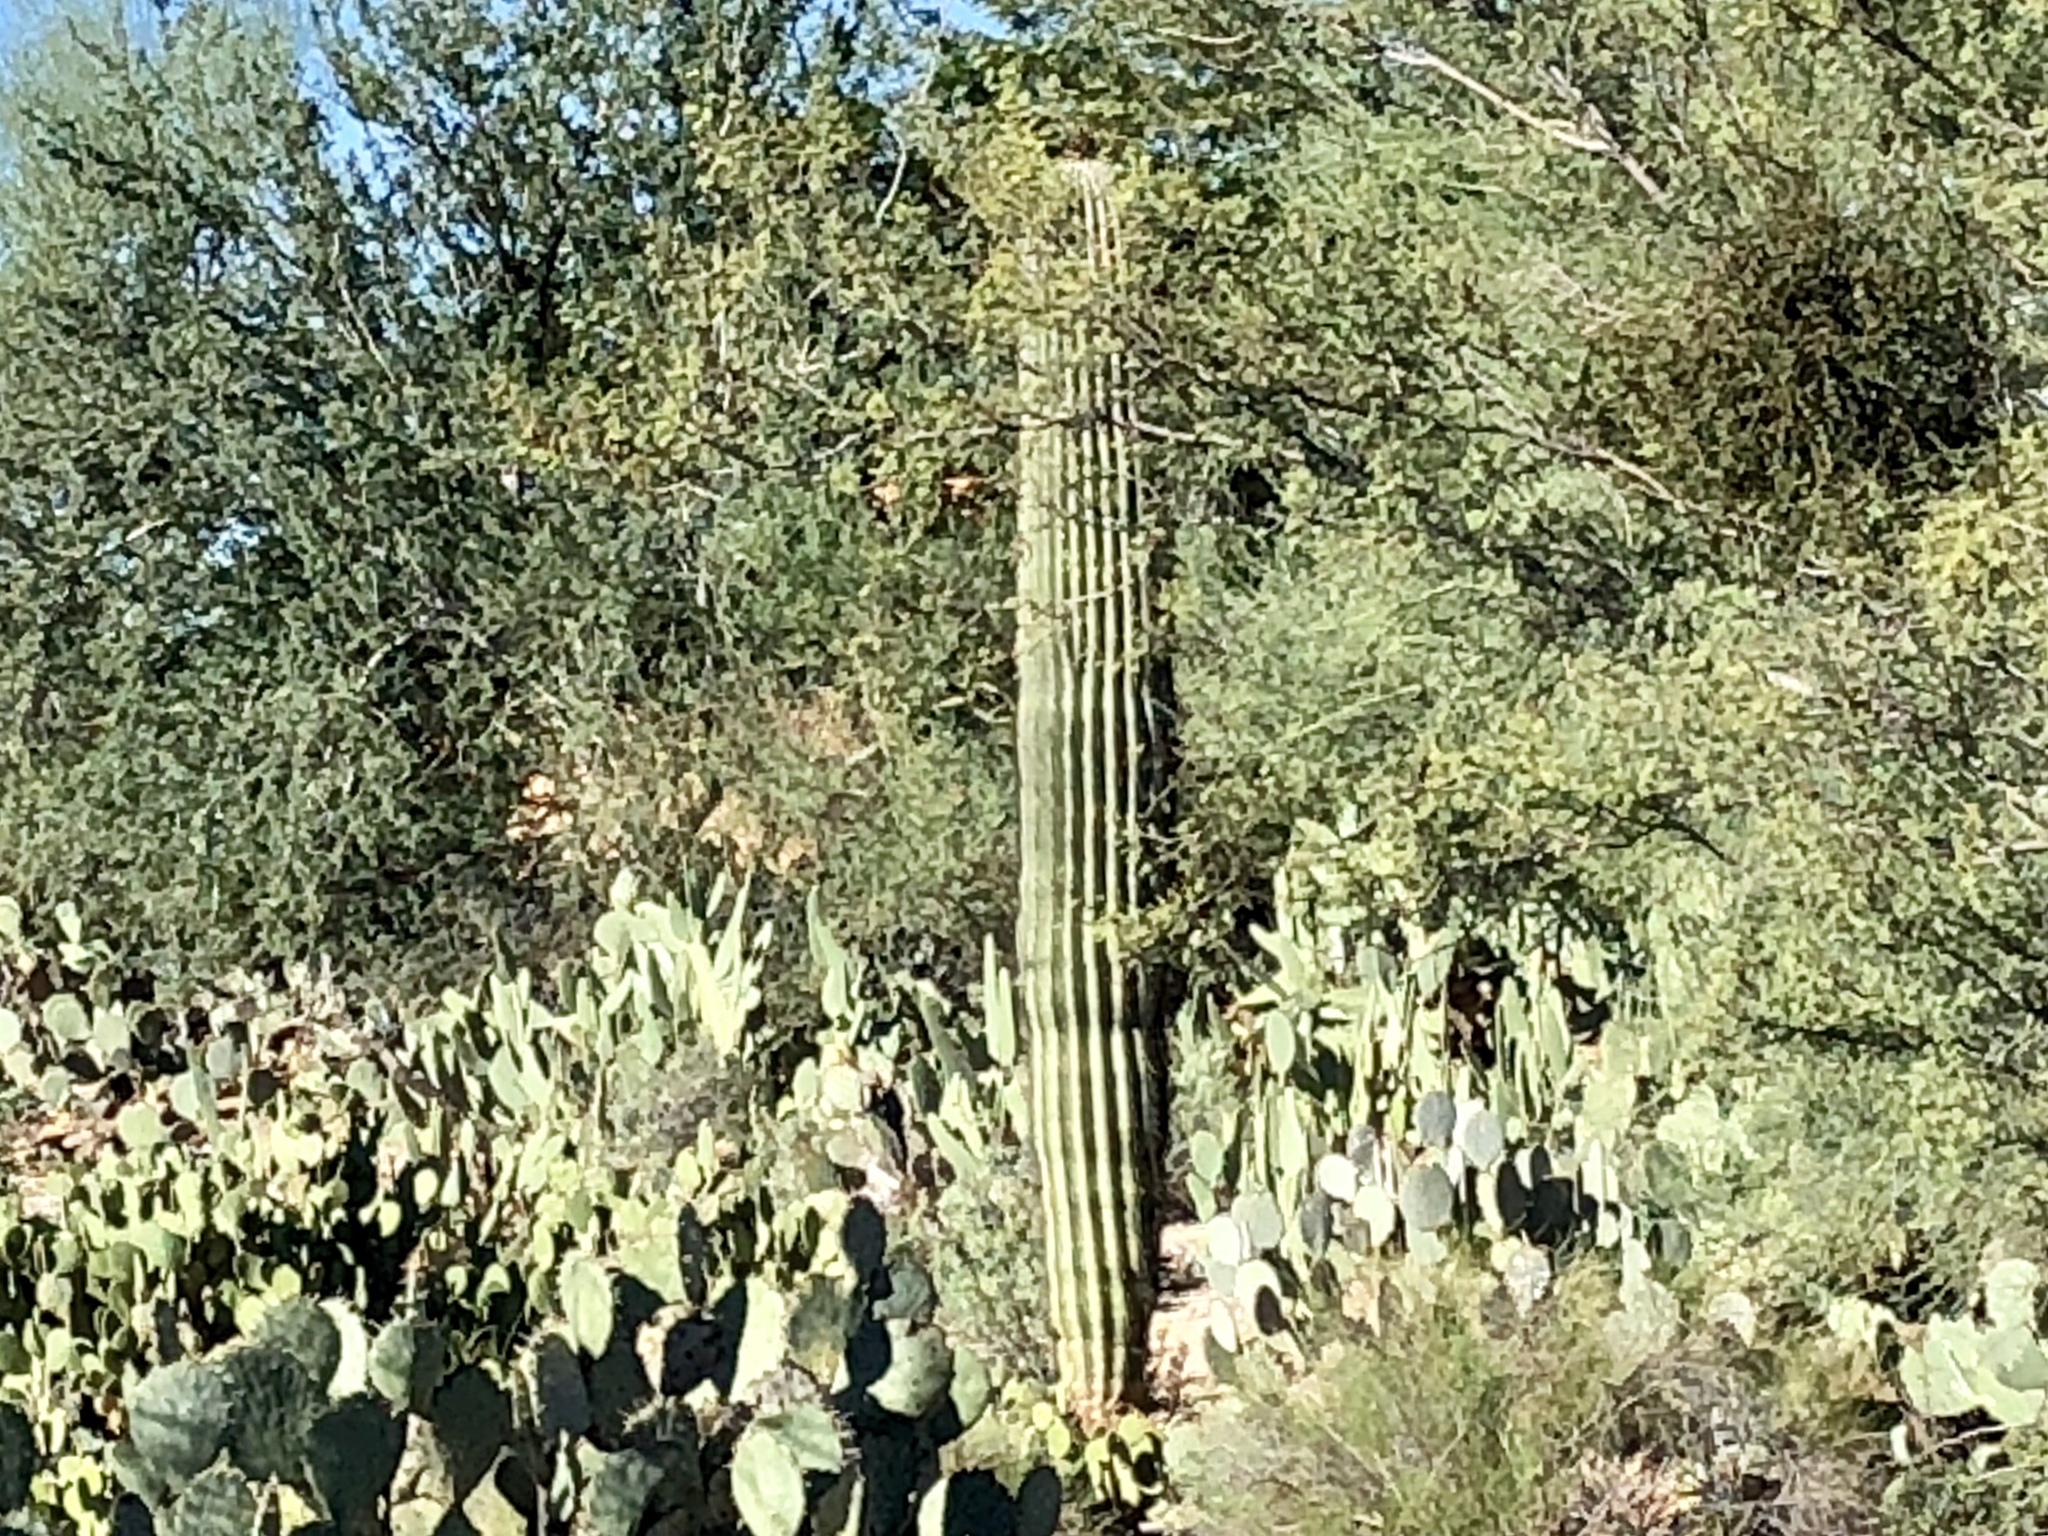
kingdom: Plantae
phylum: Tracheophyta
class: Magnoliopsida
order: Caryophyllales
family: Cactaceae
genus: Carnegiea
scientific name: Carnegiea gigantea
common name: Saguaro
